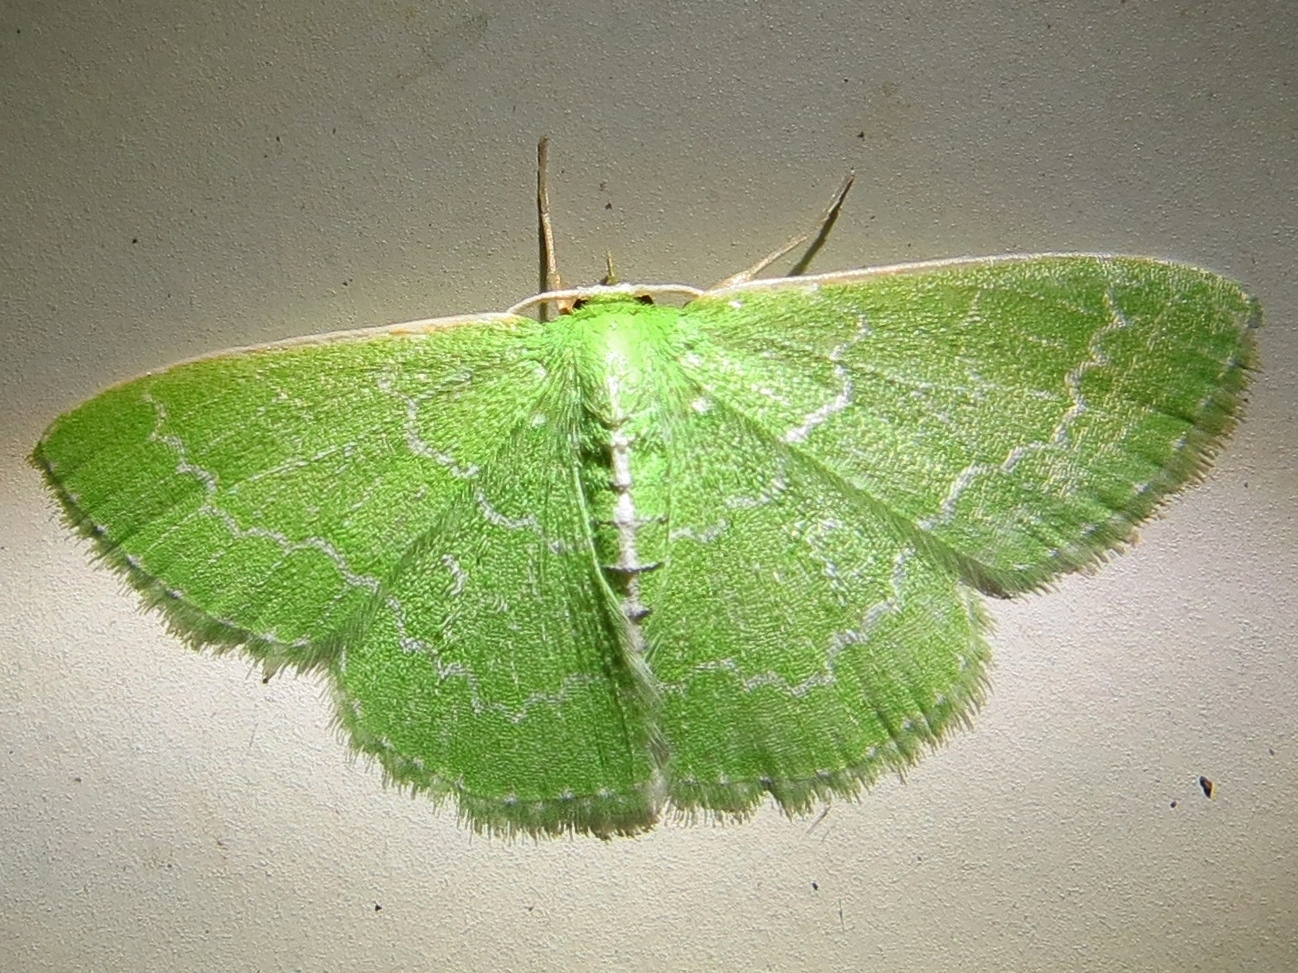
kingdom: Animalia
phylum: Arthropoda
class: Insecta
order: Lepidoptera
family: Geometridae
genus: Synchlora
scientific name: Synchlora frondaria
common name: Southern emerald
